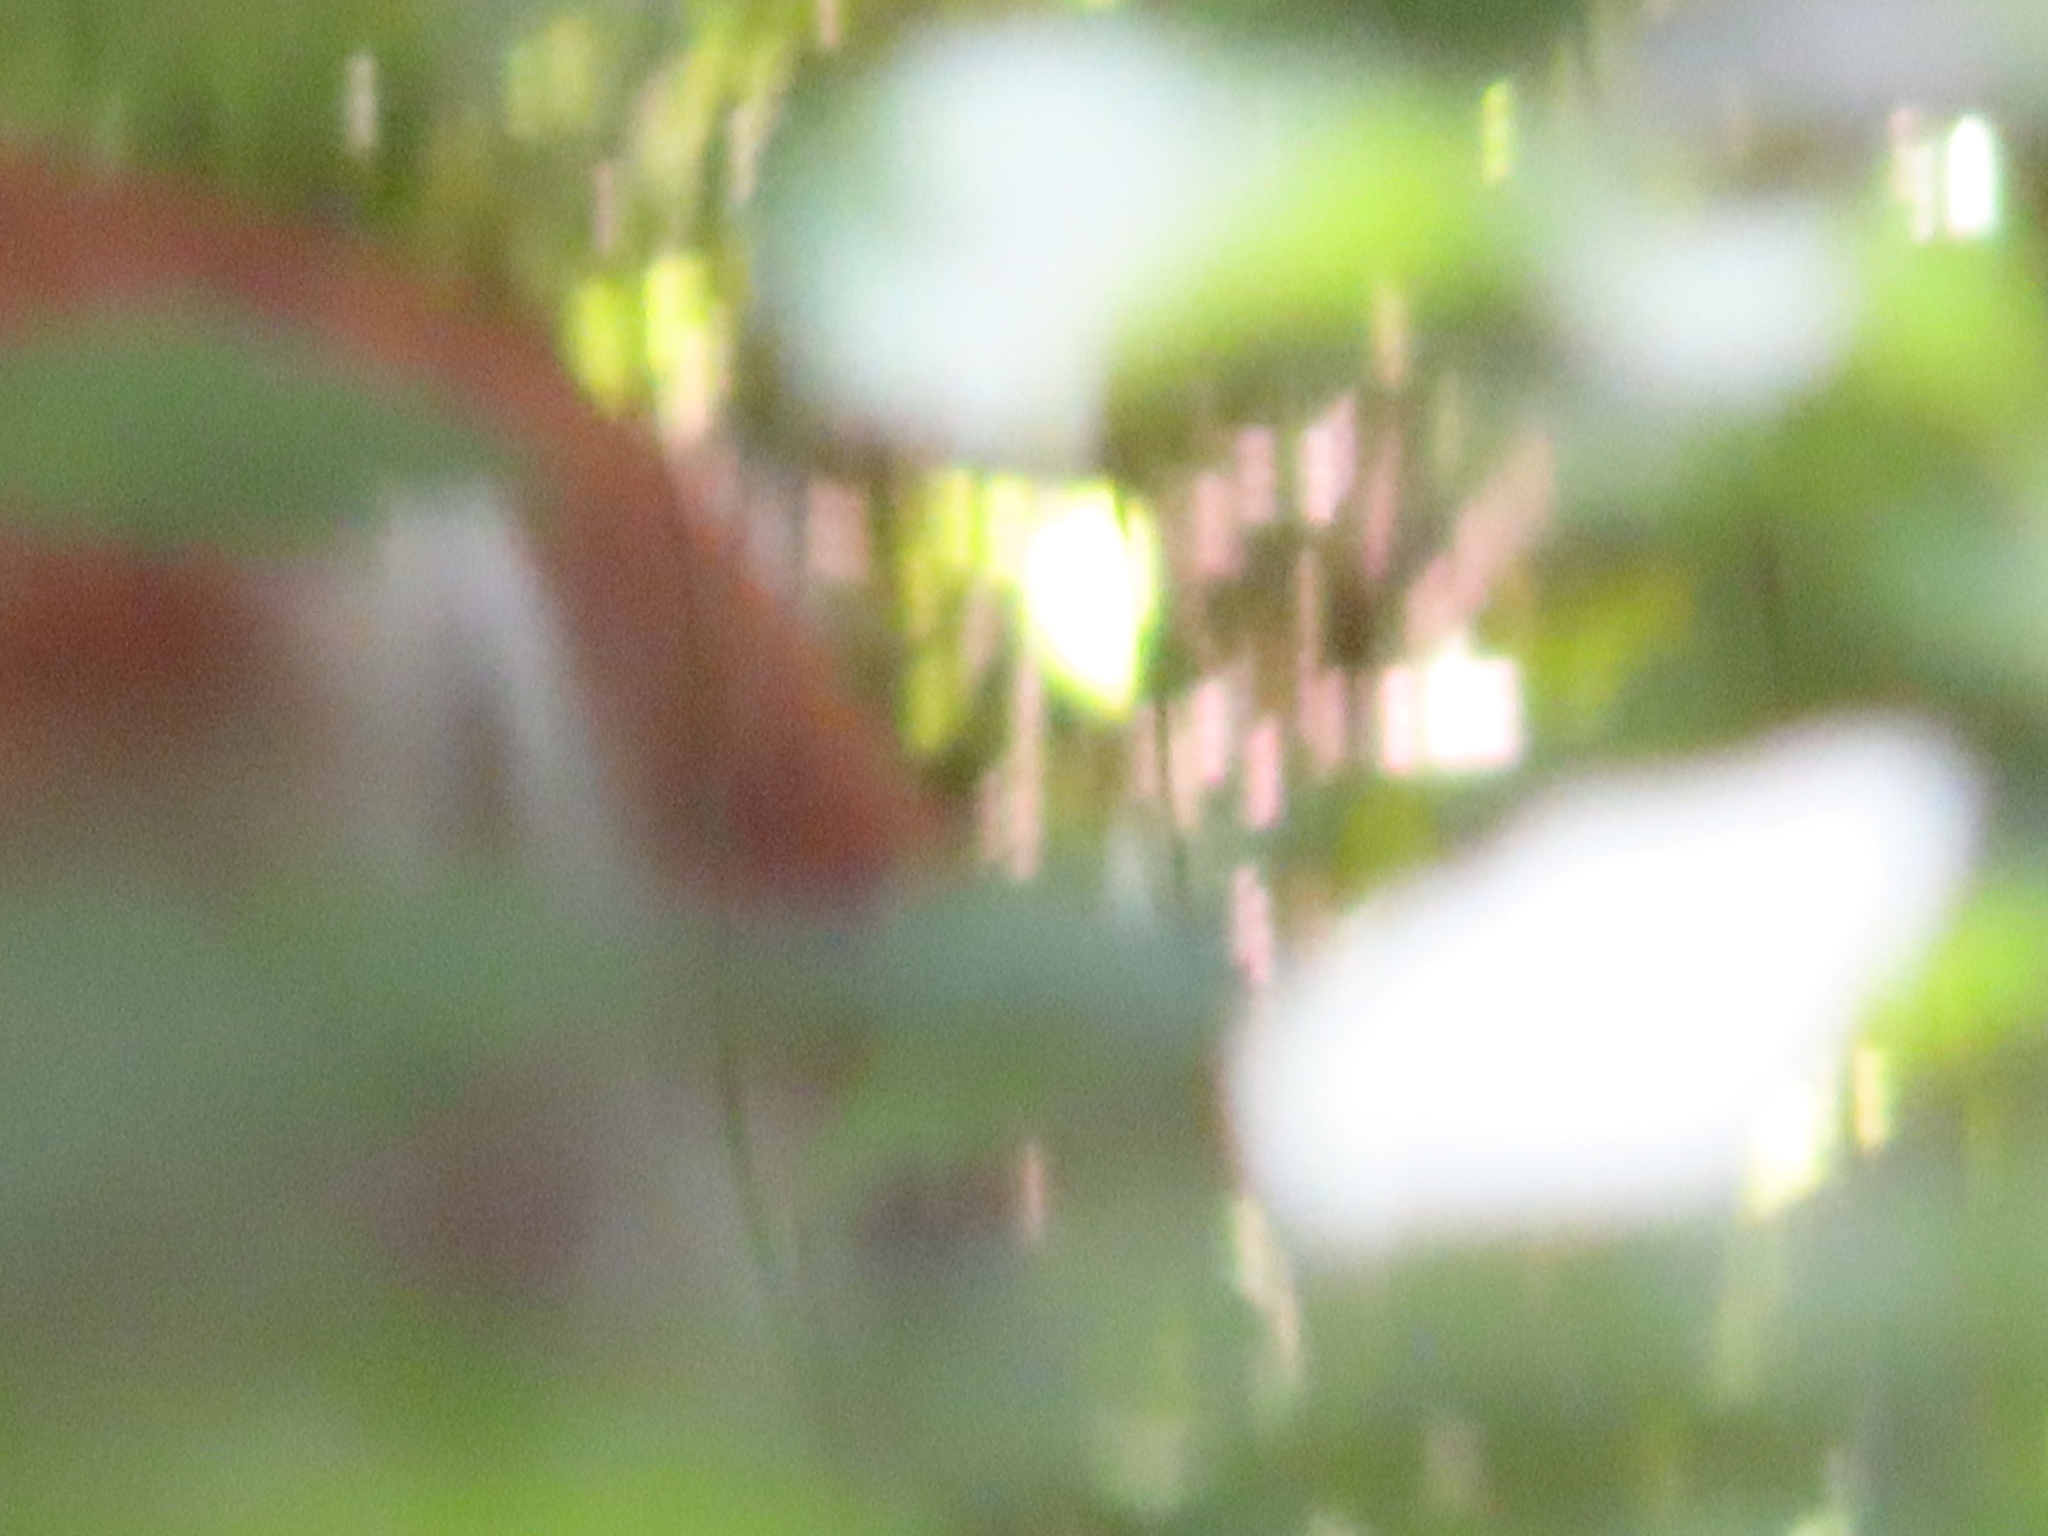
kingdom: Animalia
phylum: Chordata
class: Mammalia
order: Artiodactyla
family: Cervidae
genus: Odocoileus
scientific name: Odocoileus virginianus
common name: White-tailed deer
